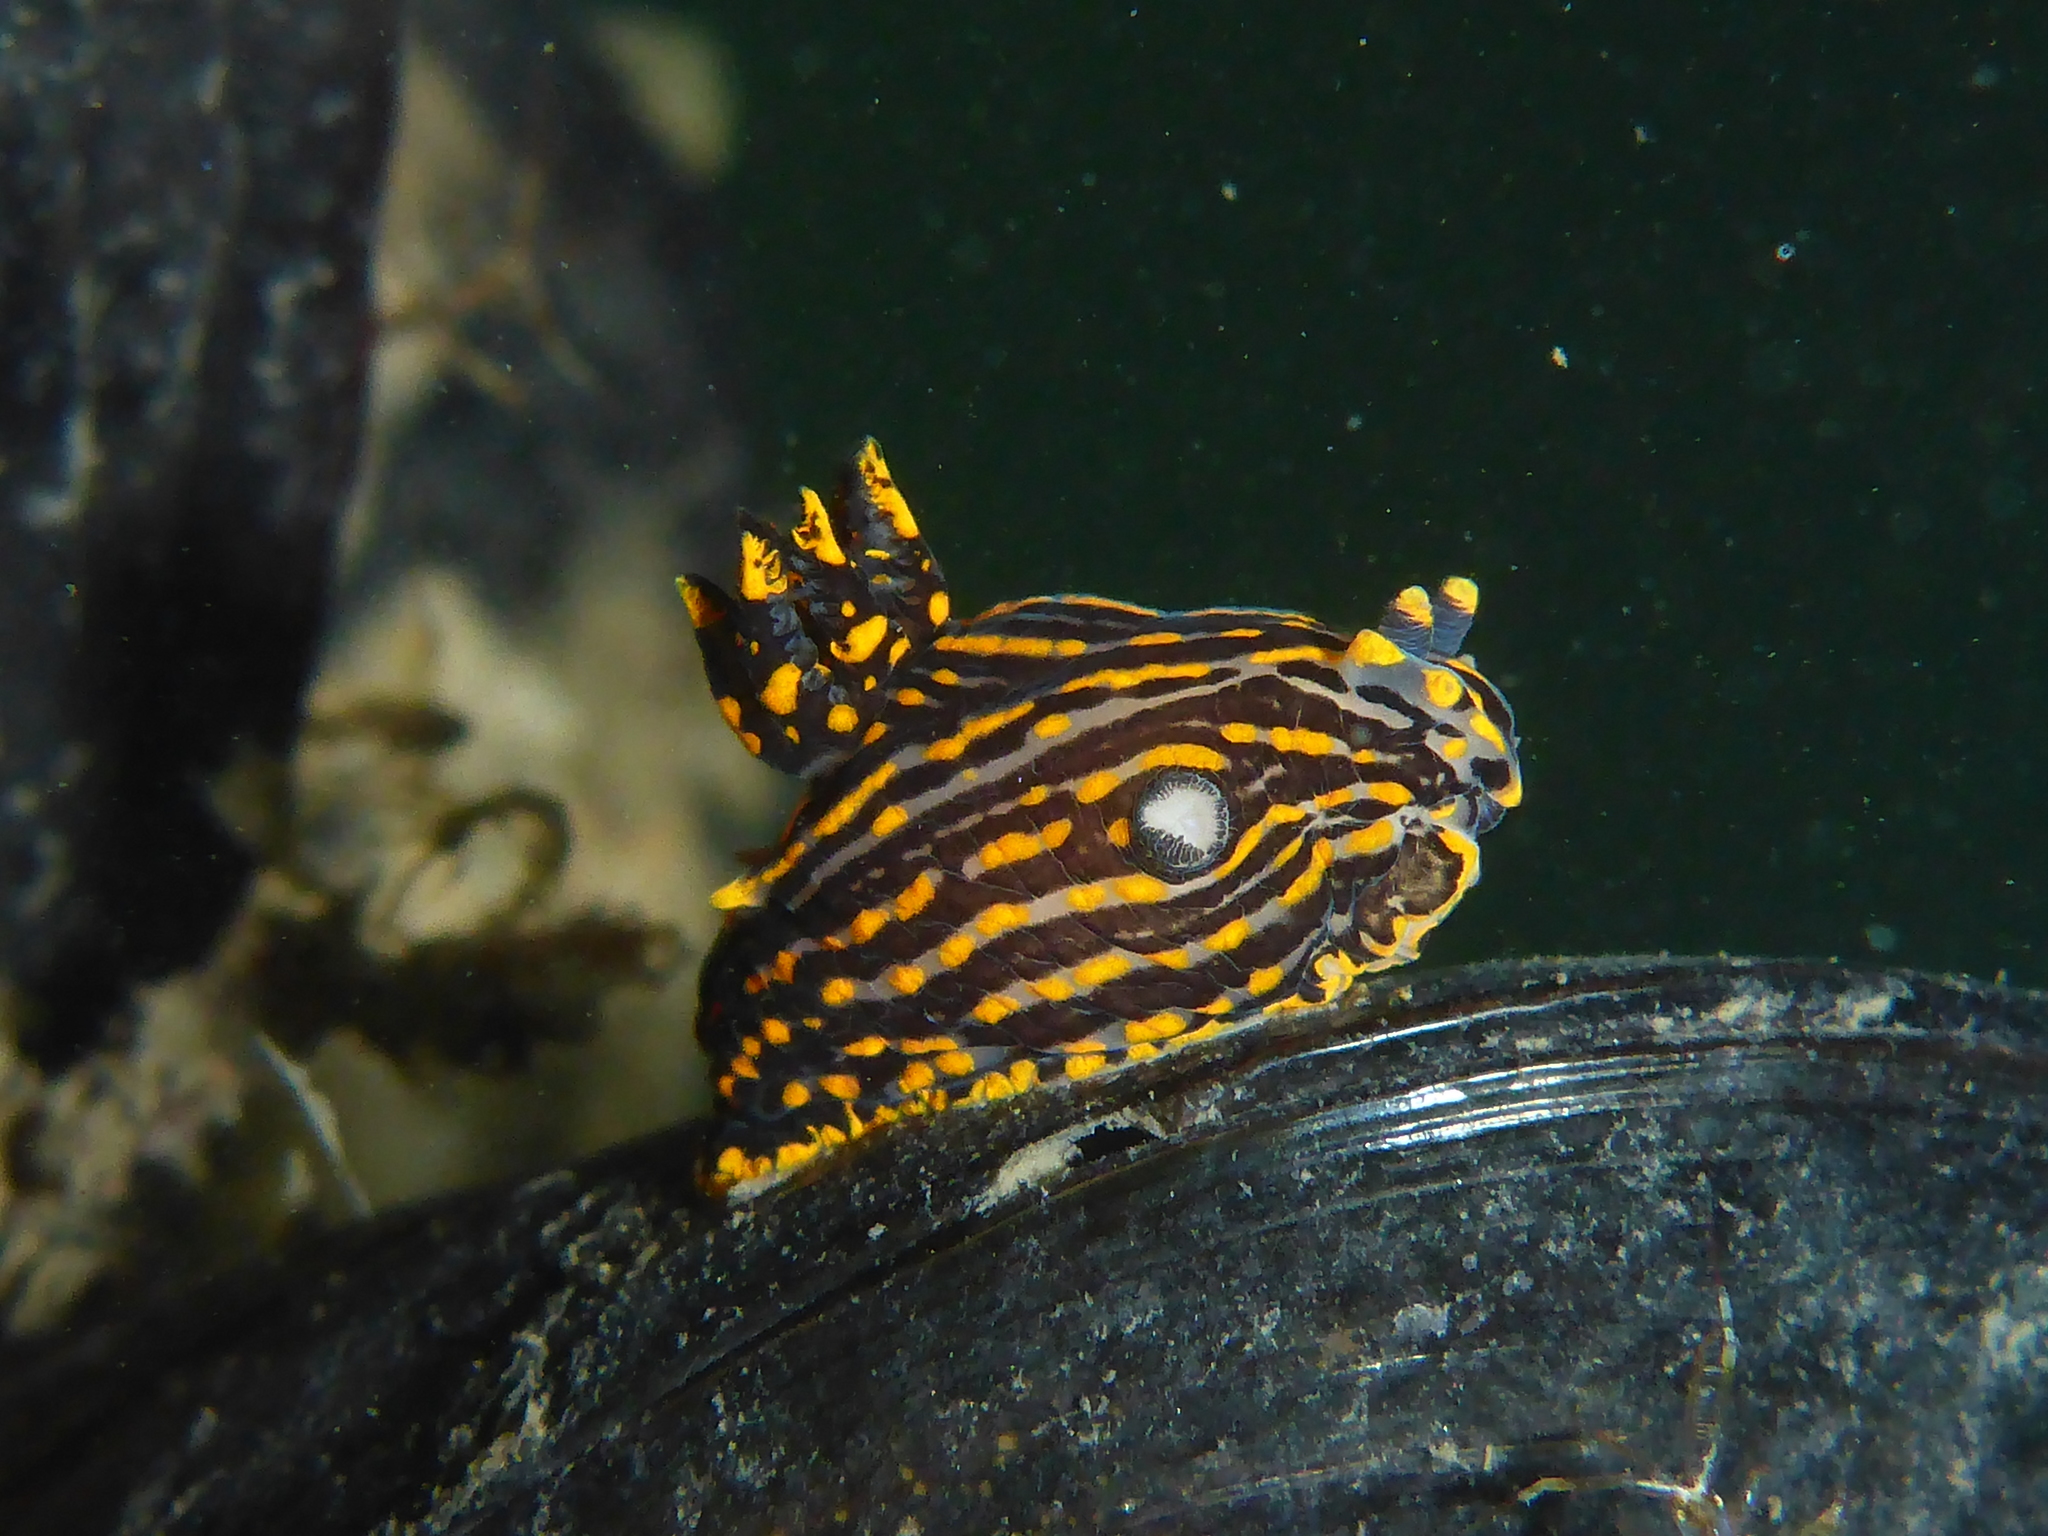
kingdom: Animalia
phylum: Mollusca
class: Gastropoda
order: Nudibranchia
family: Polyceridae
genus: Polycera
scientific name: Polycera atra
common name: Orange-spike polycera
